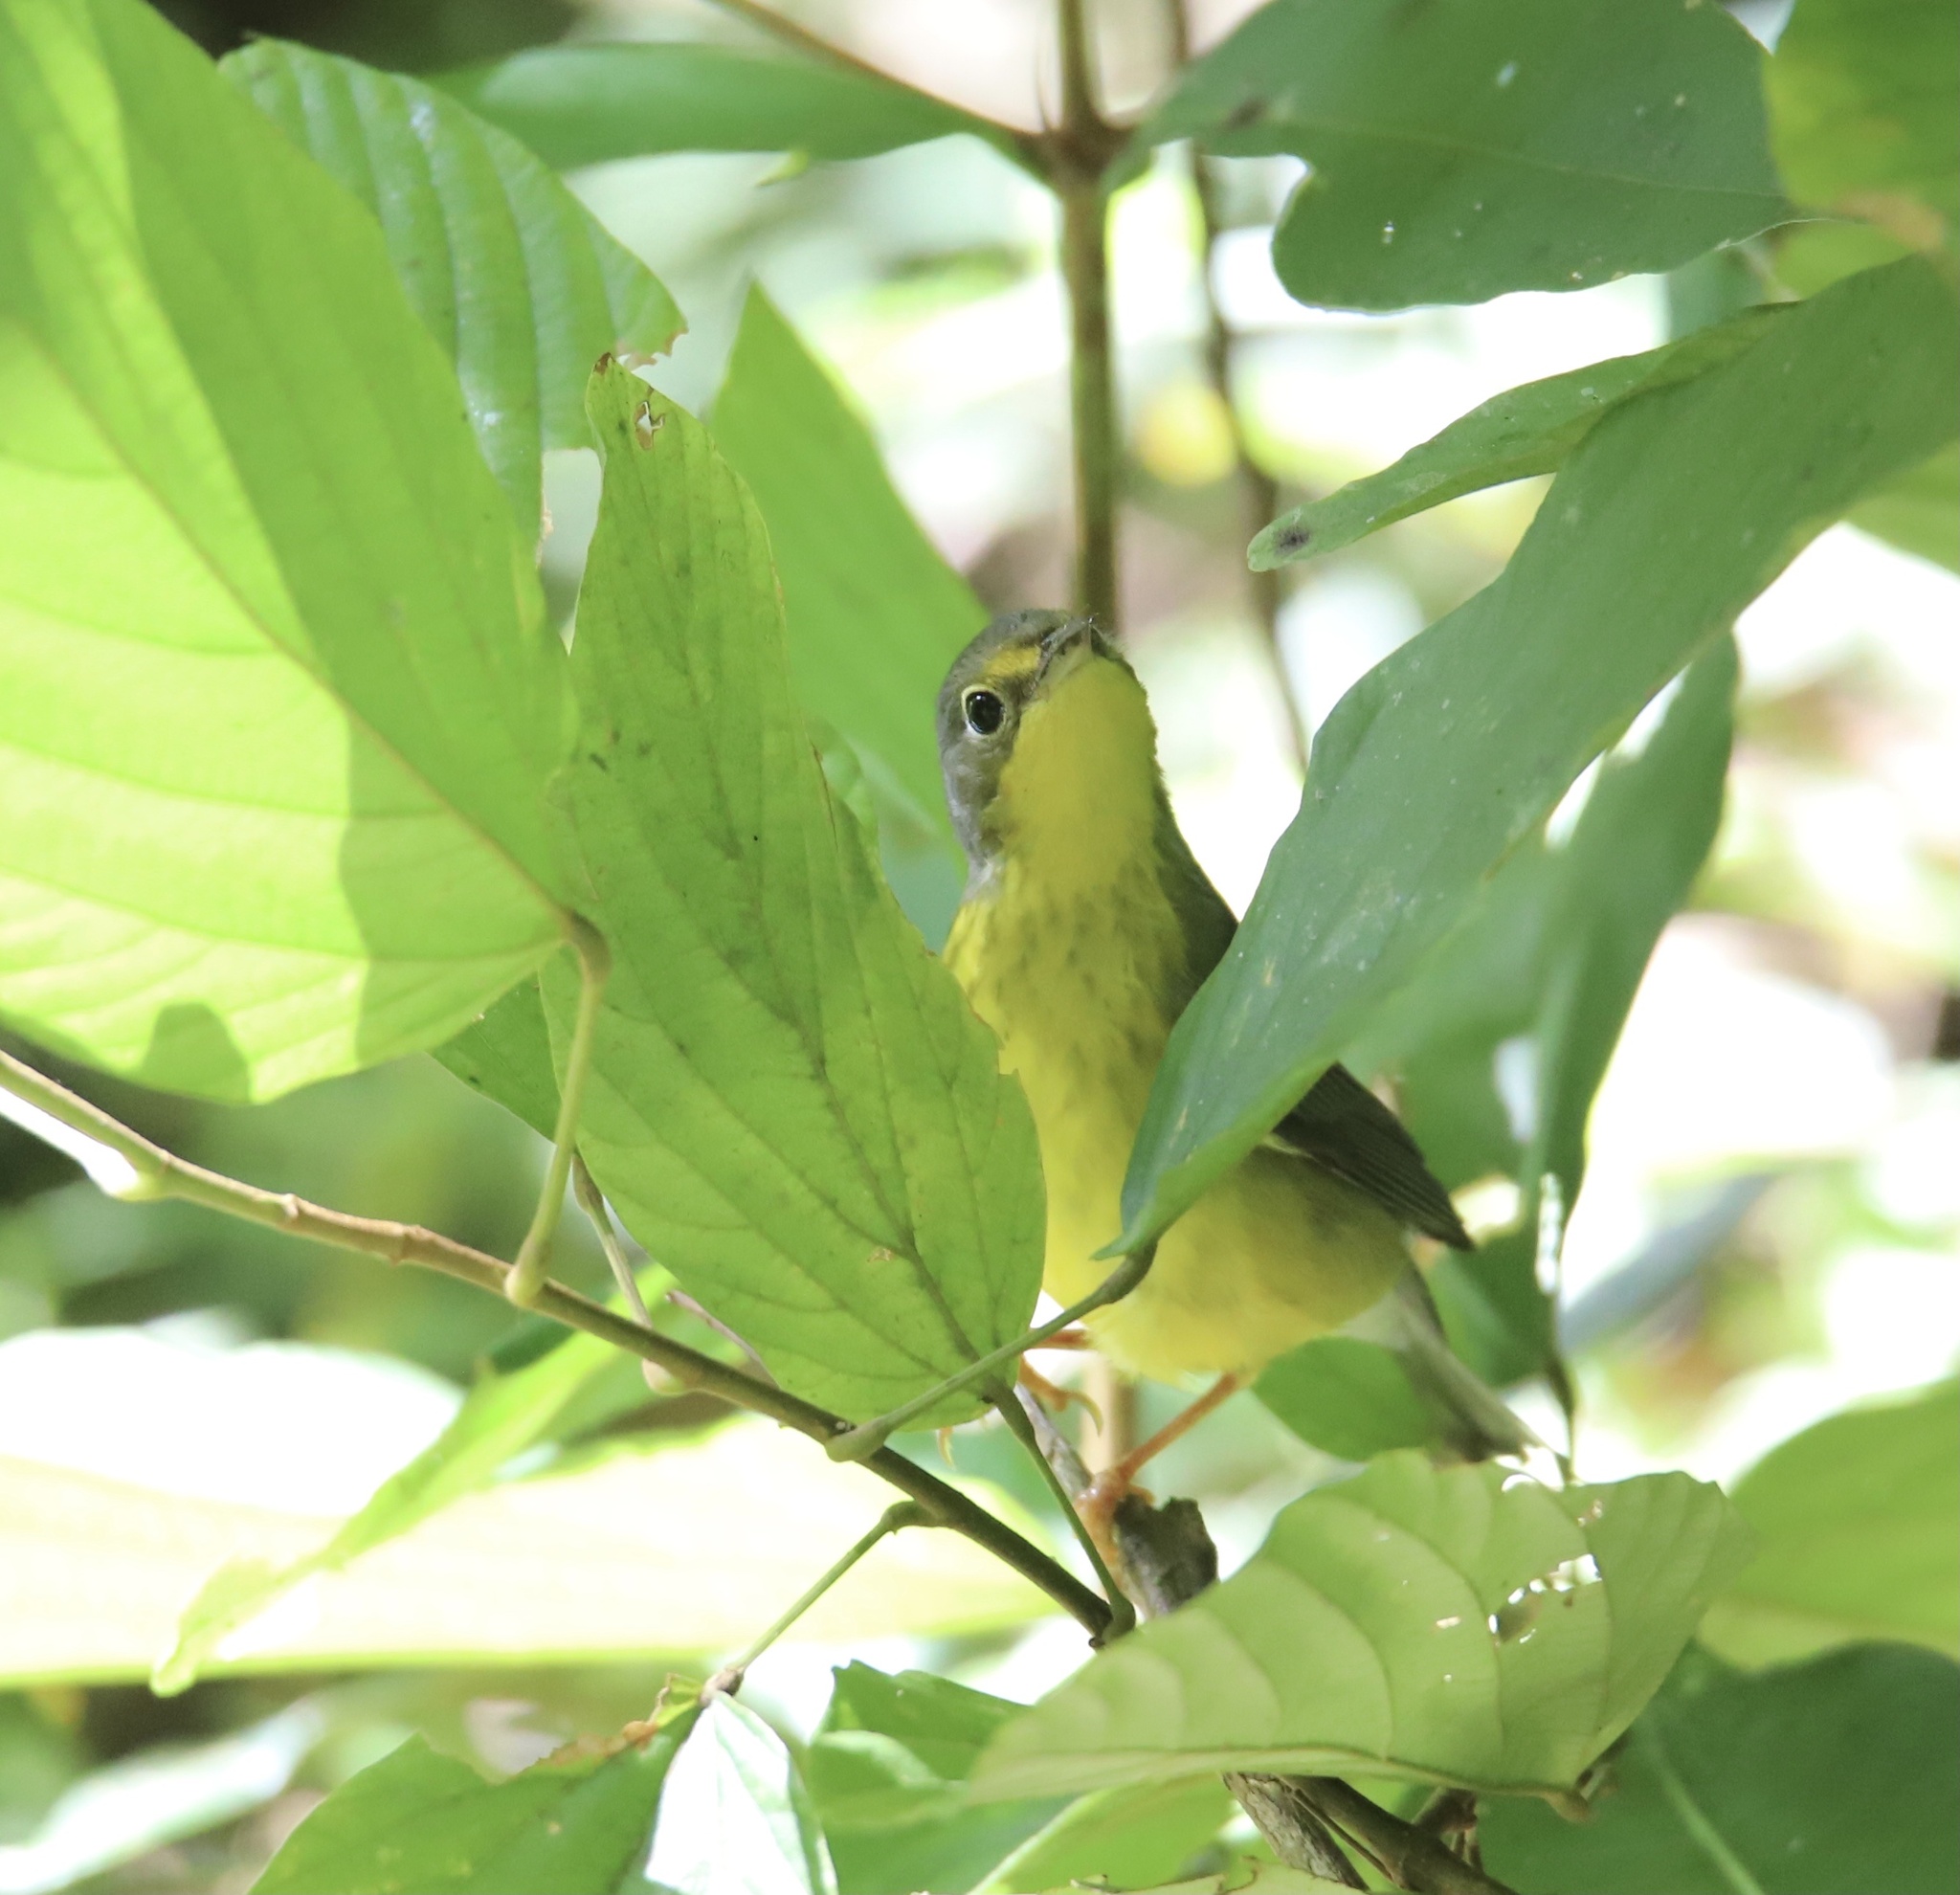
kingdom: Animalia
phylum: Chordata
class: Aves
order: Passeriformes
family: Parulidae
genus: Cardellina
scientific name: Cardellina canadensis
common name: Canada warbler
